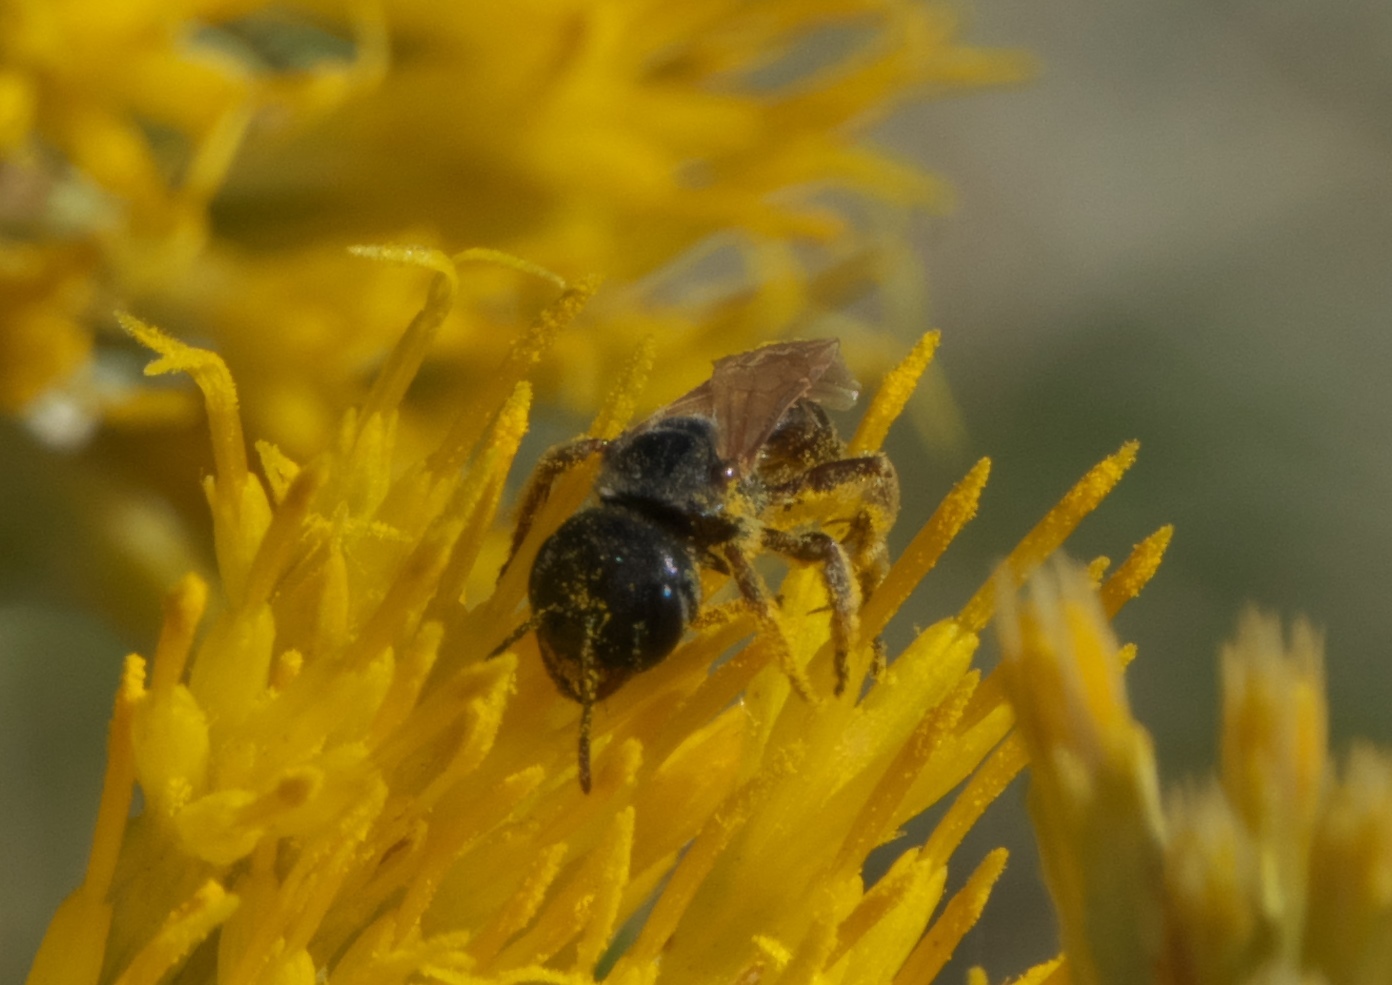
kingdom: Animalia
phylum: Arthropoda
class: Insecta
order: Hymenoptera
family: Halictidae
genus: Halictus
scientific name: Halictus ligatus
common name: Ligated furrow bee
